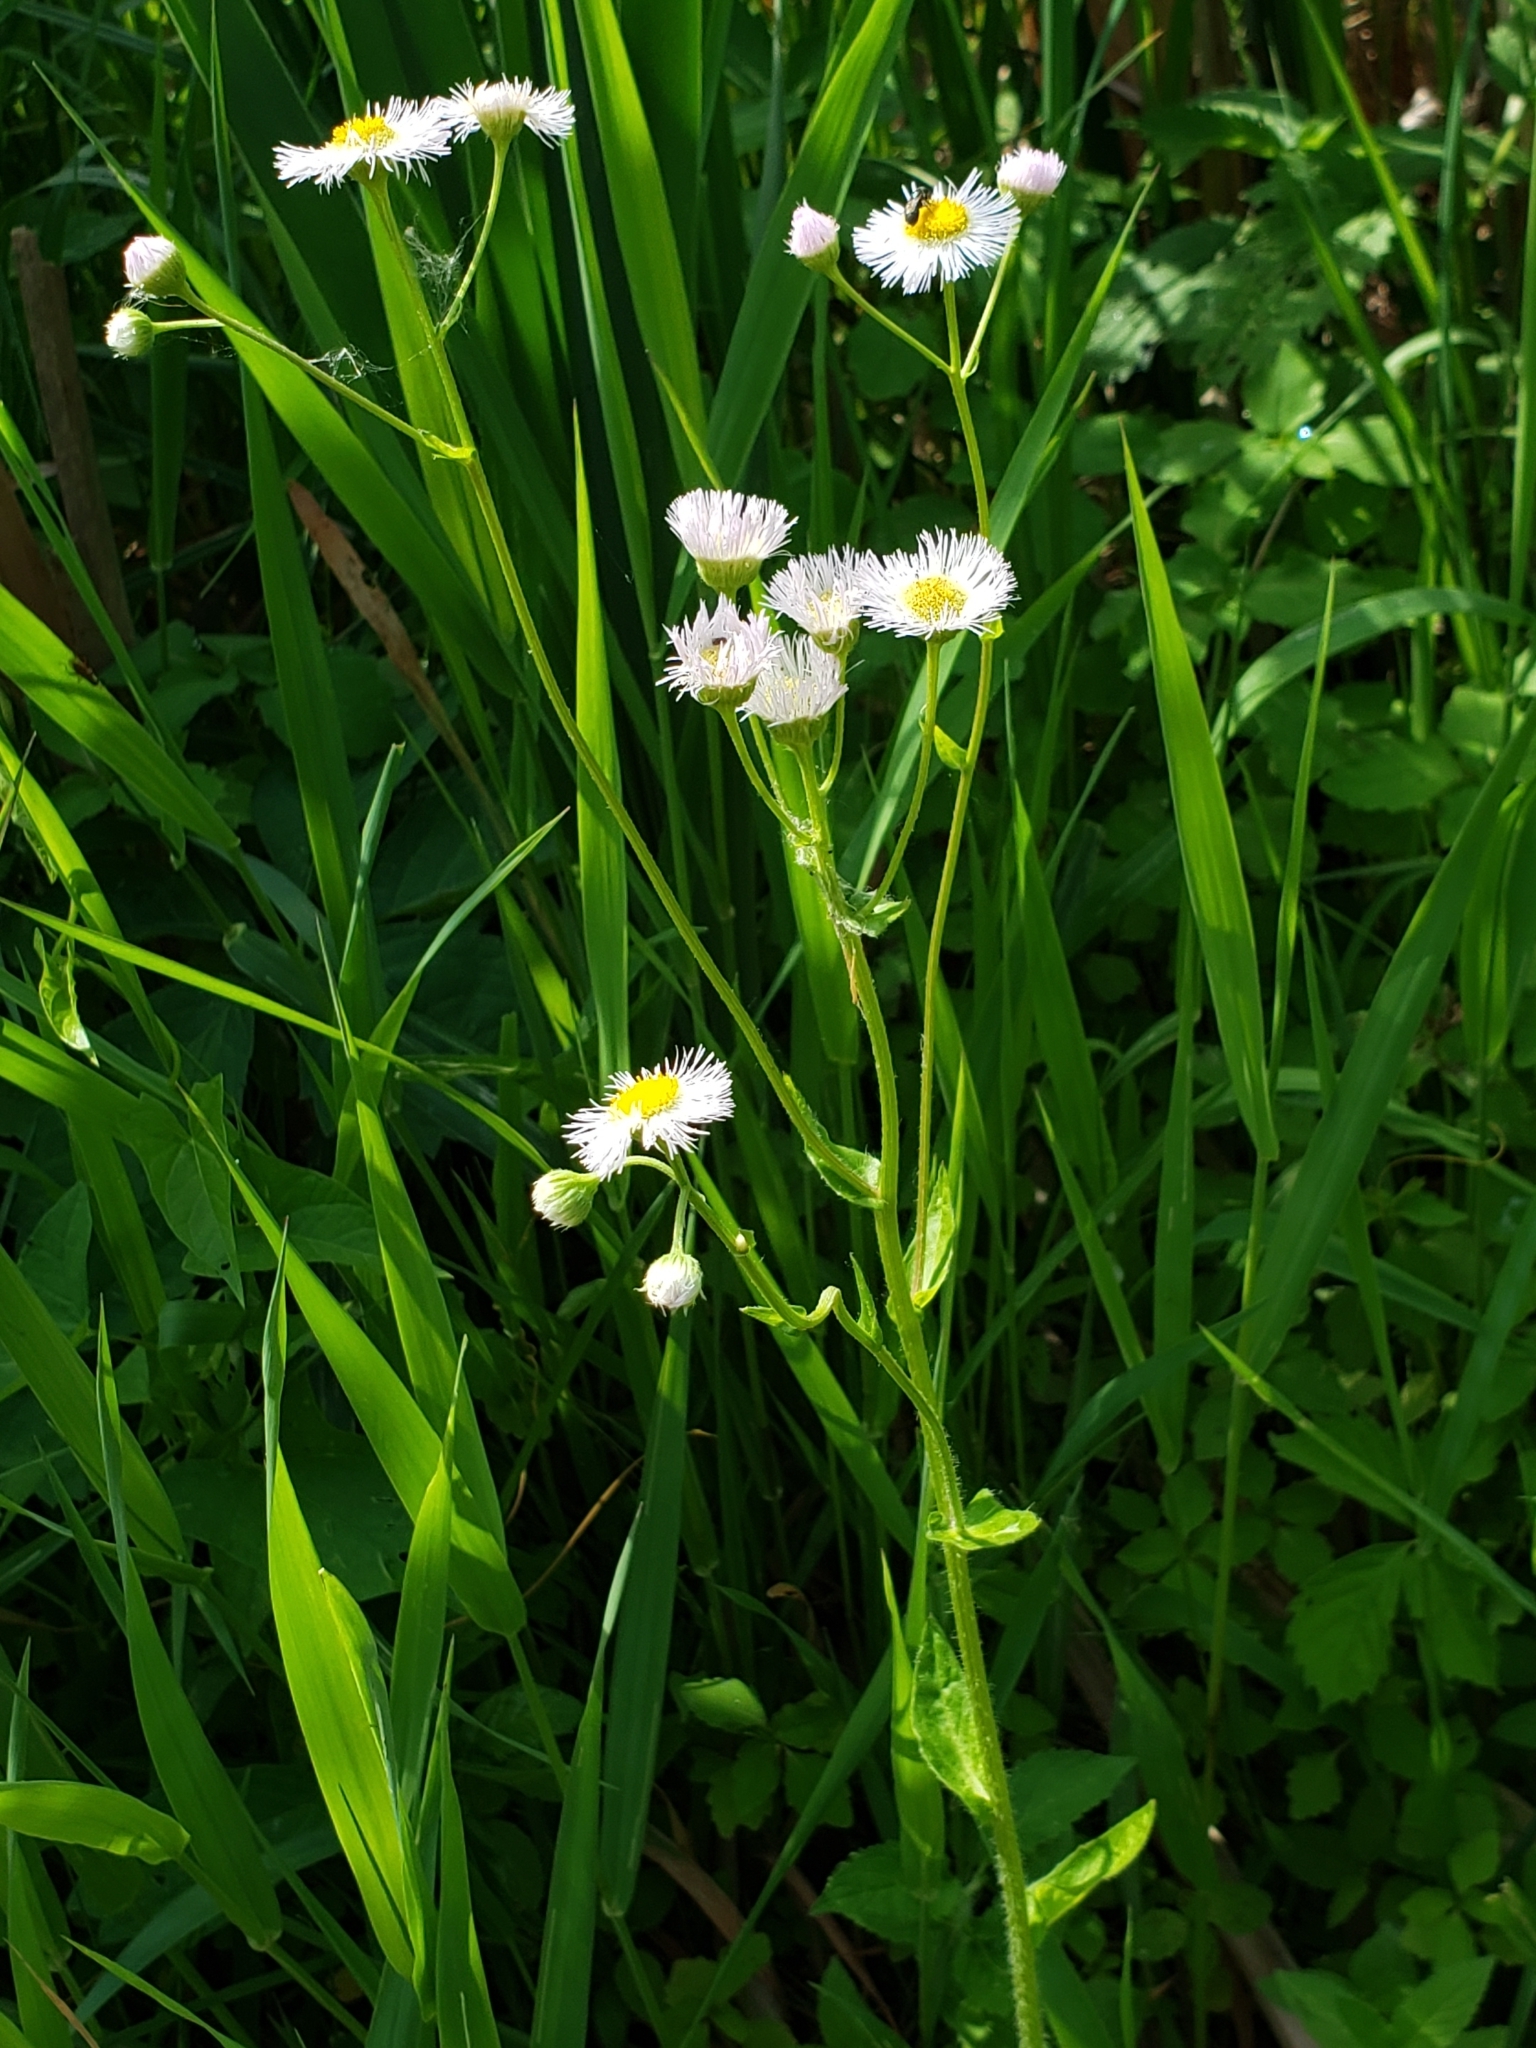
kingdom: Plantae
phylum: Tracheophyta
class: Magnoliopsida
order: Asterales
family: Asteraceae
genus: Erigeron
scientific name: Erigeron philadelphicus
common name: Robin's-plantain
